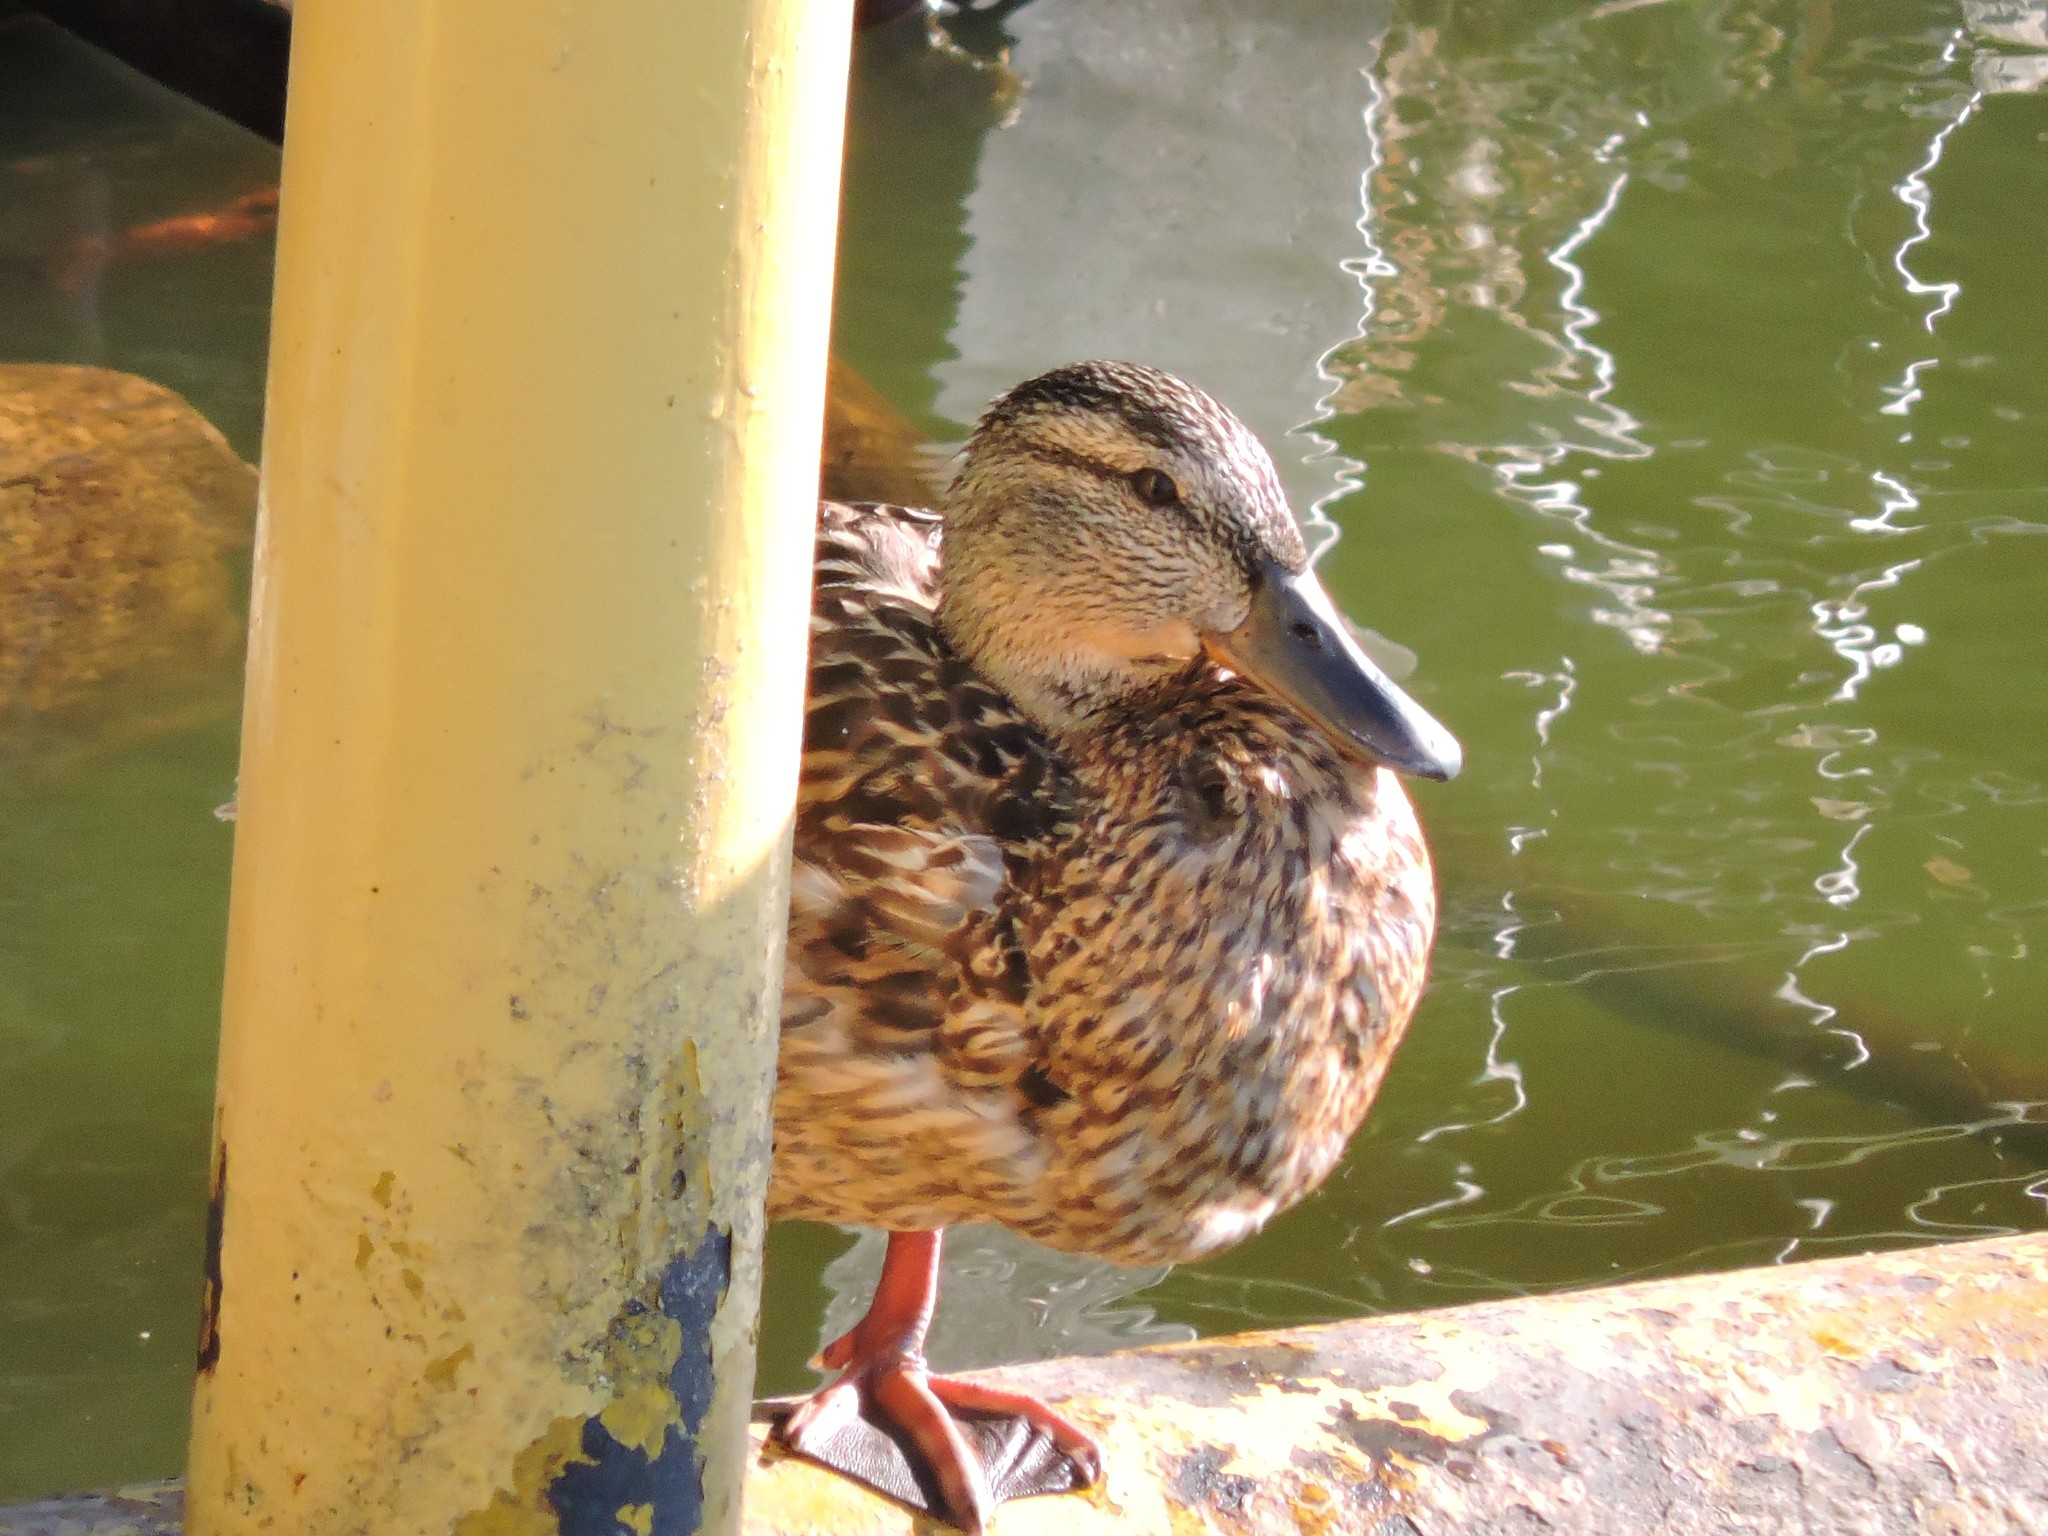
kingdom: Animalia
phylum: Chordata
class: Aves
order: Anseriformes
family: Anatidae
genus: Anas
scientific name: Anas platyrhynchos
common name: Mallard
